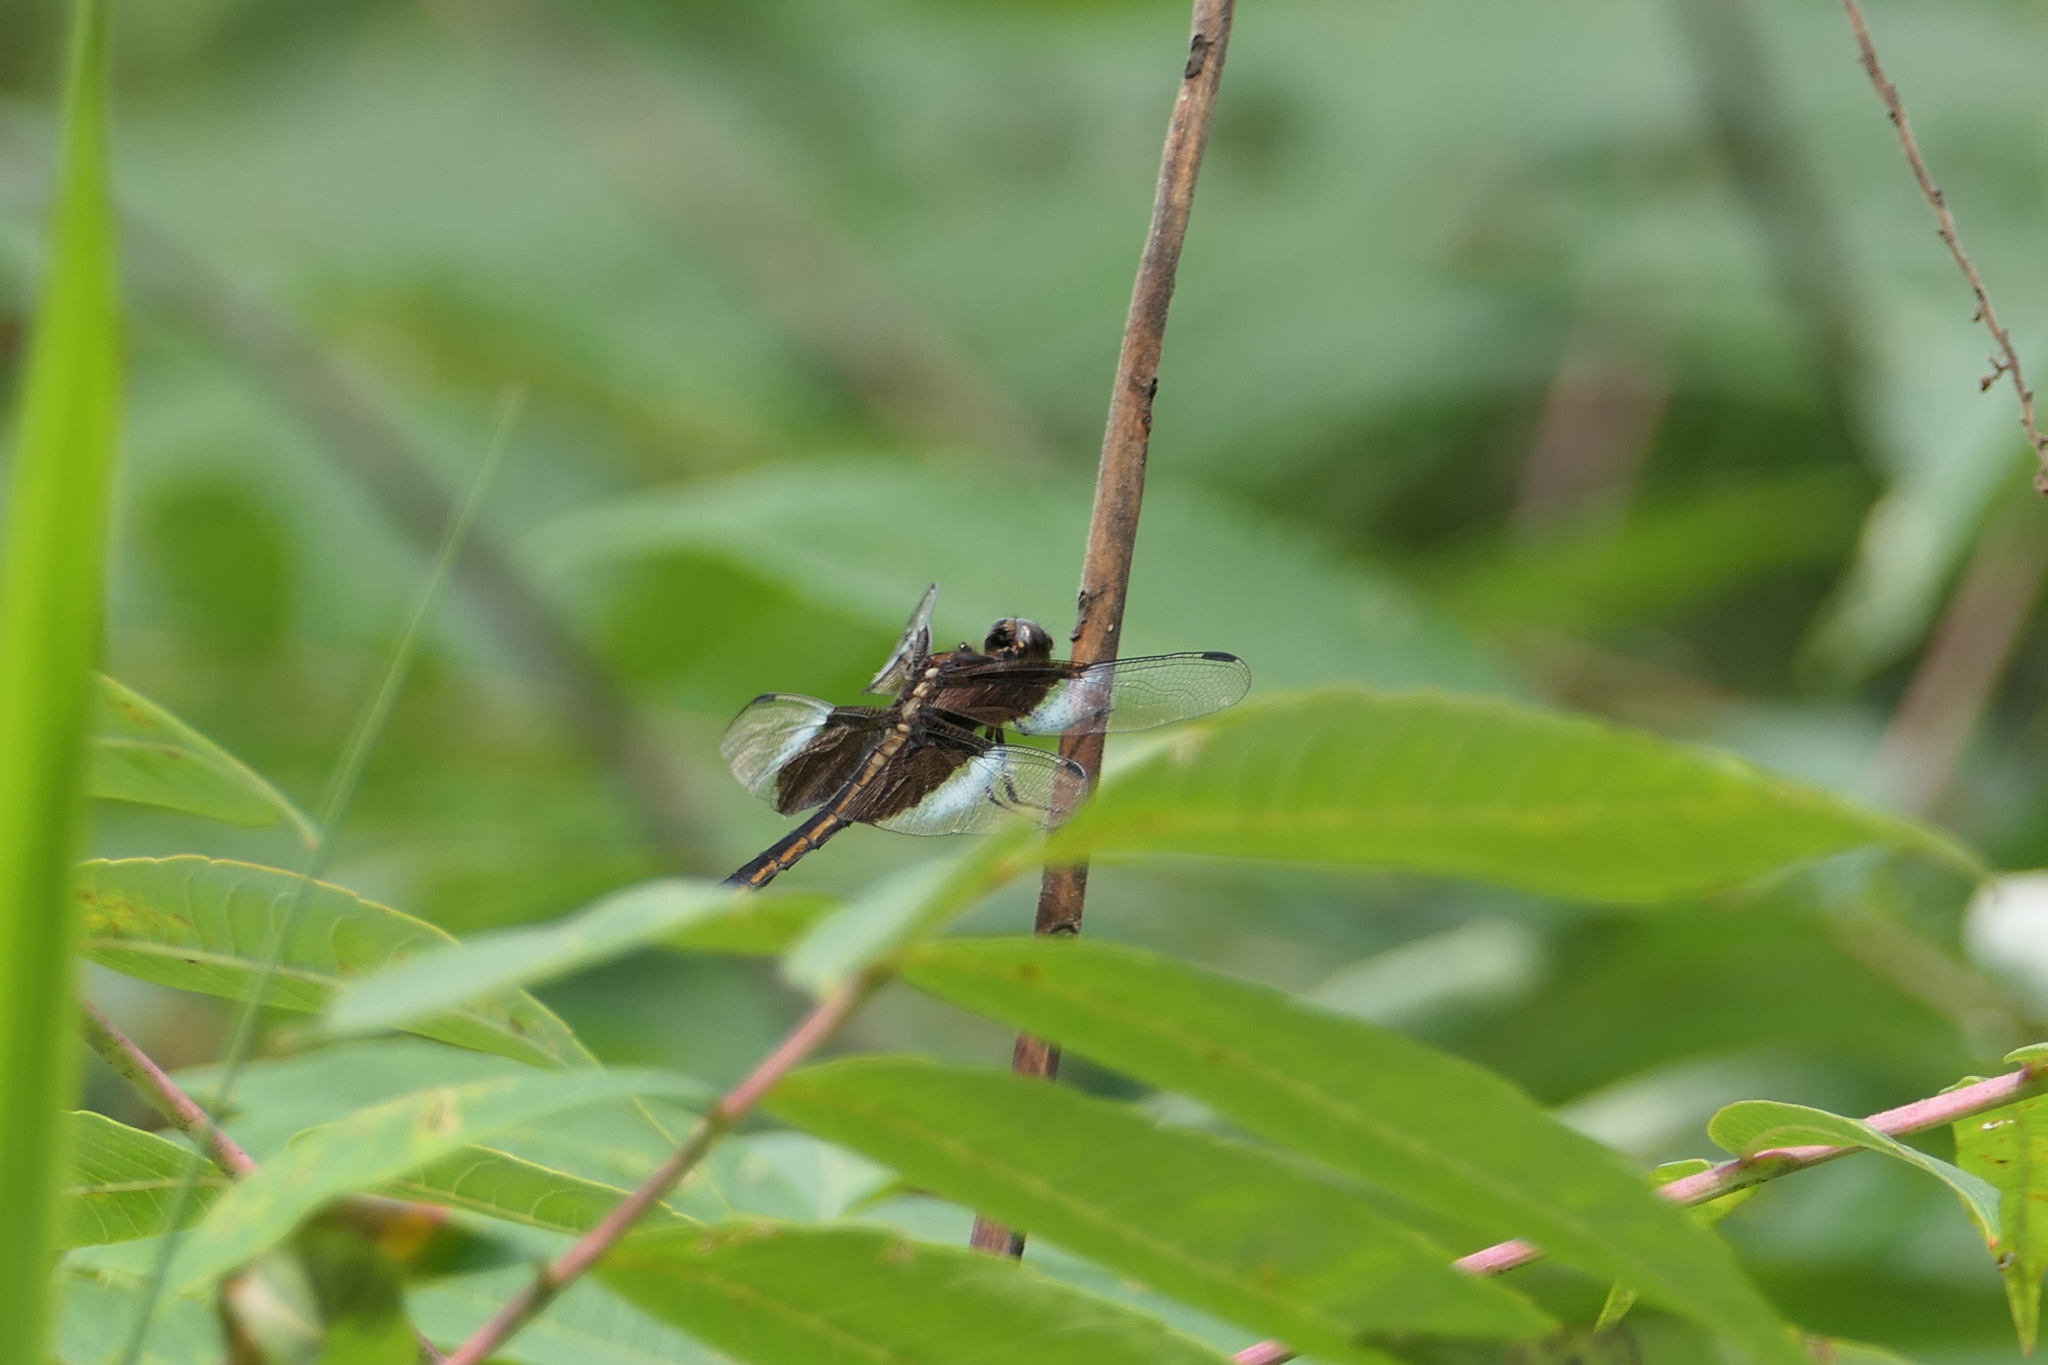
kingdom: Animalia
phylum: Arthropoda
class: Insecta
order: Odonata
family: Libellulidae
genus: Libellula
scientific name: Libellula luctuosa
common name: Widow skimmer
